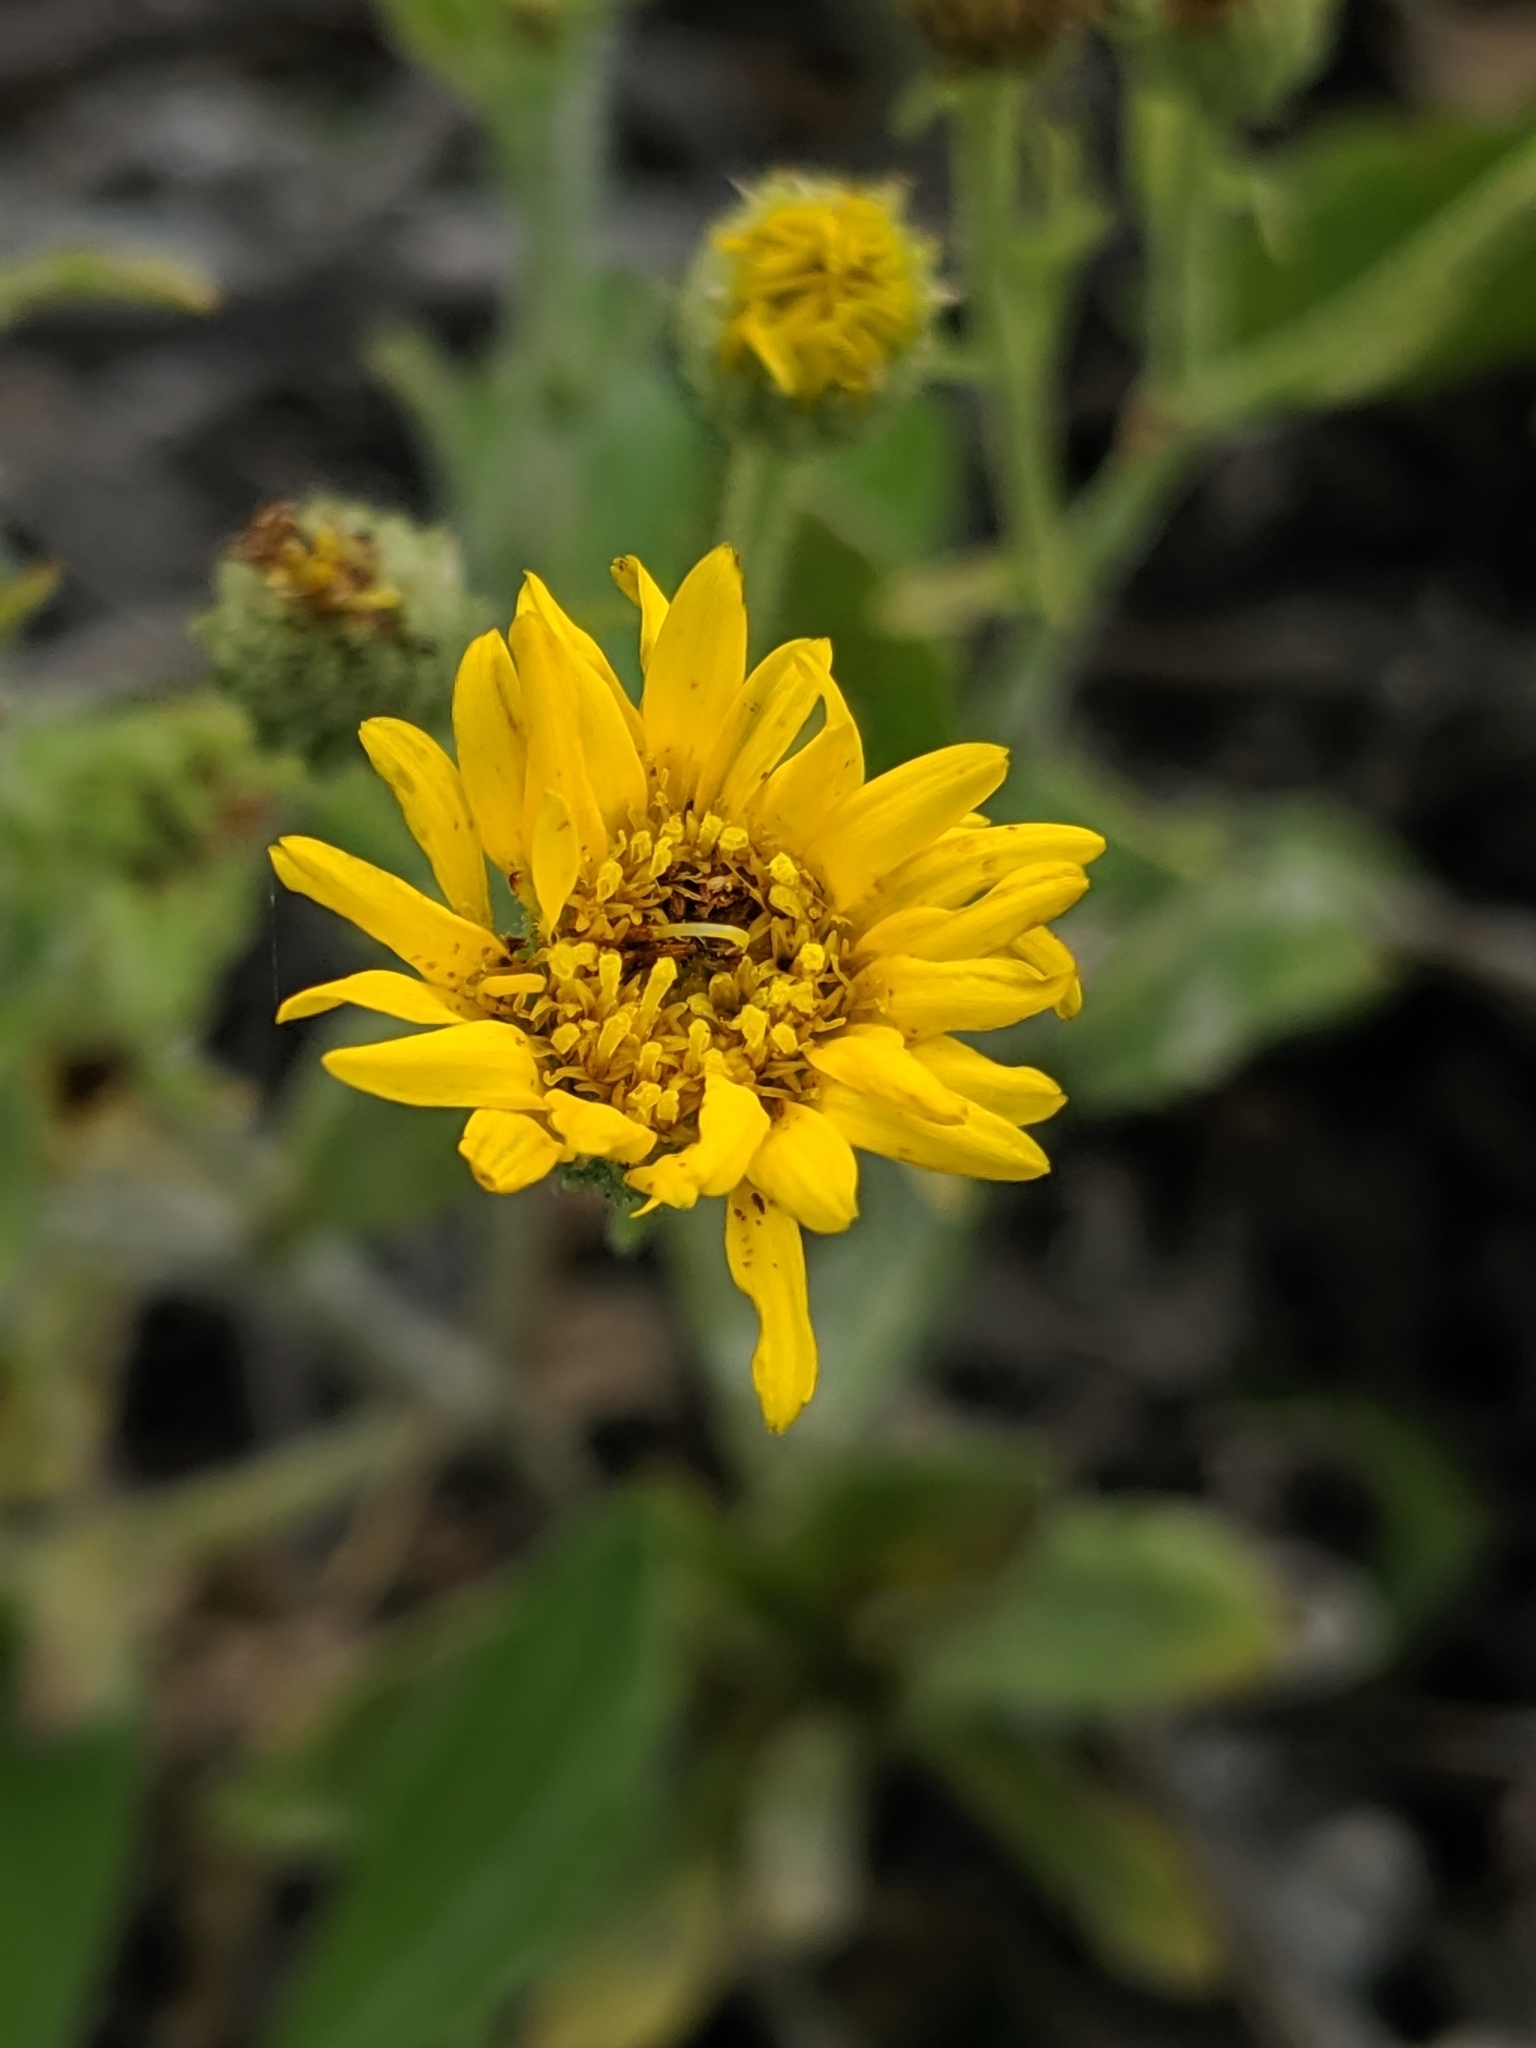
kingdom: Plantae
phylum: Tracheophyta
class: Magnoliopsida
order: Asterales
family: Asteraceae
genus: Heterotheca
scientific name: Heterotheca grandiflora
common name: Telegraphweed
